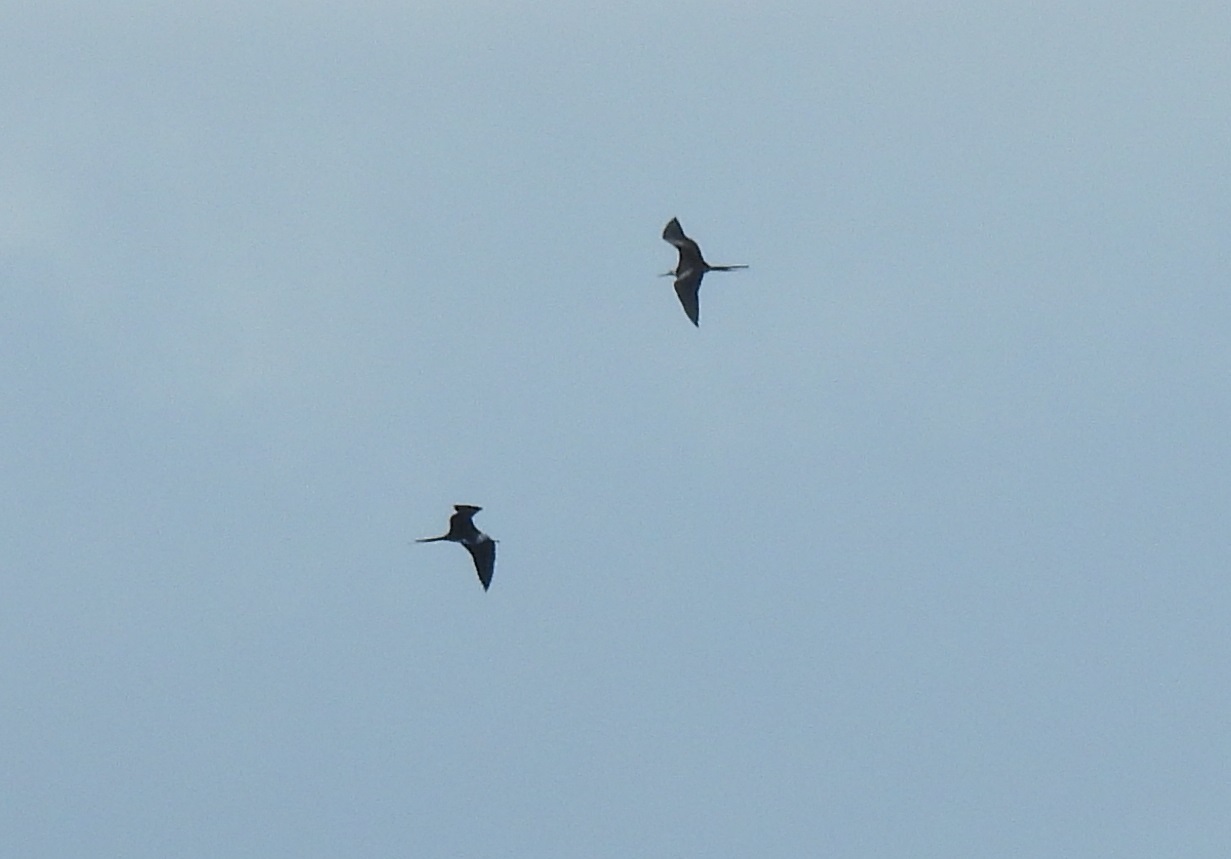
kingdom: Animalia
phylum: Chordata
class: Aves
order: Suliformes
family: Fregatidae
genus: Fregata
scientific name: Fregata magnificens
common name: Magnificent frigatebird
